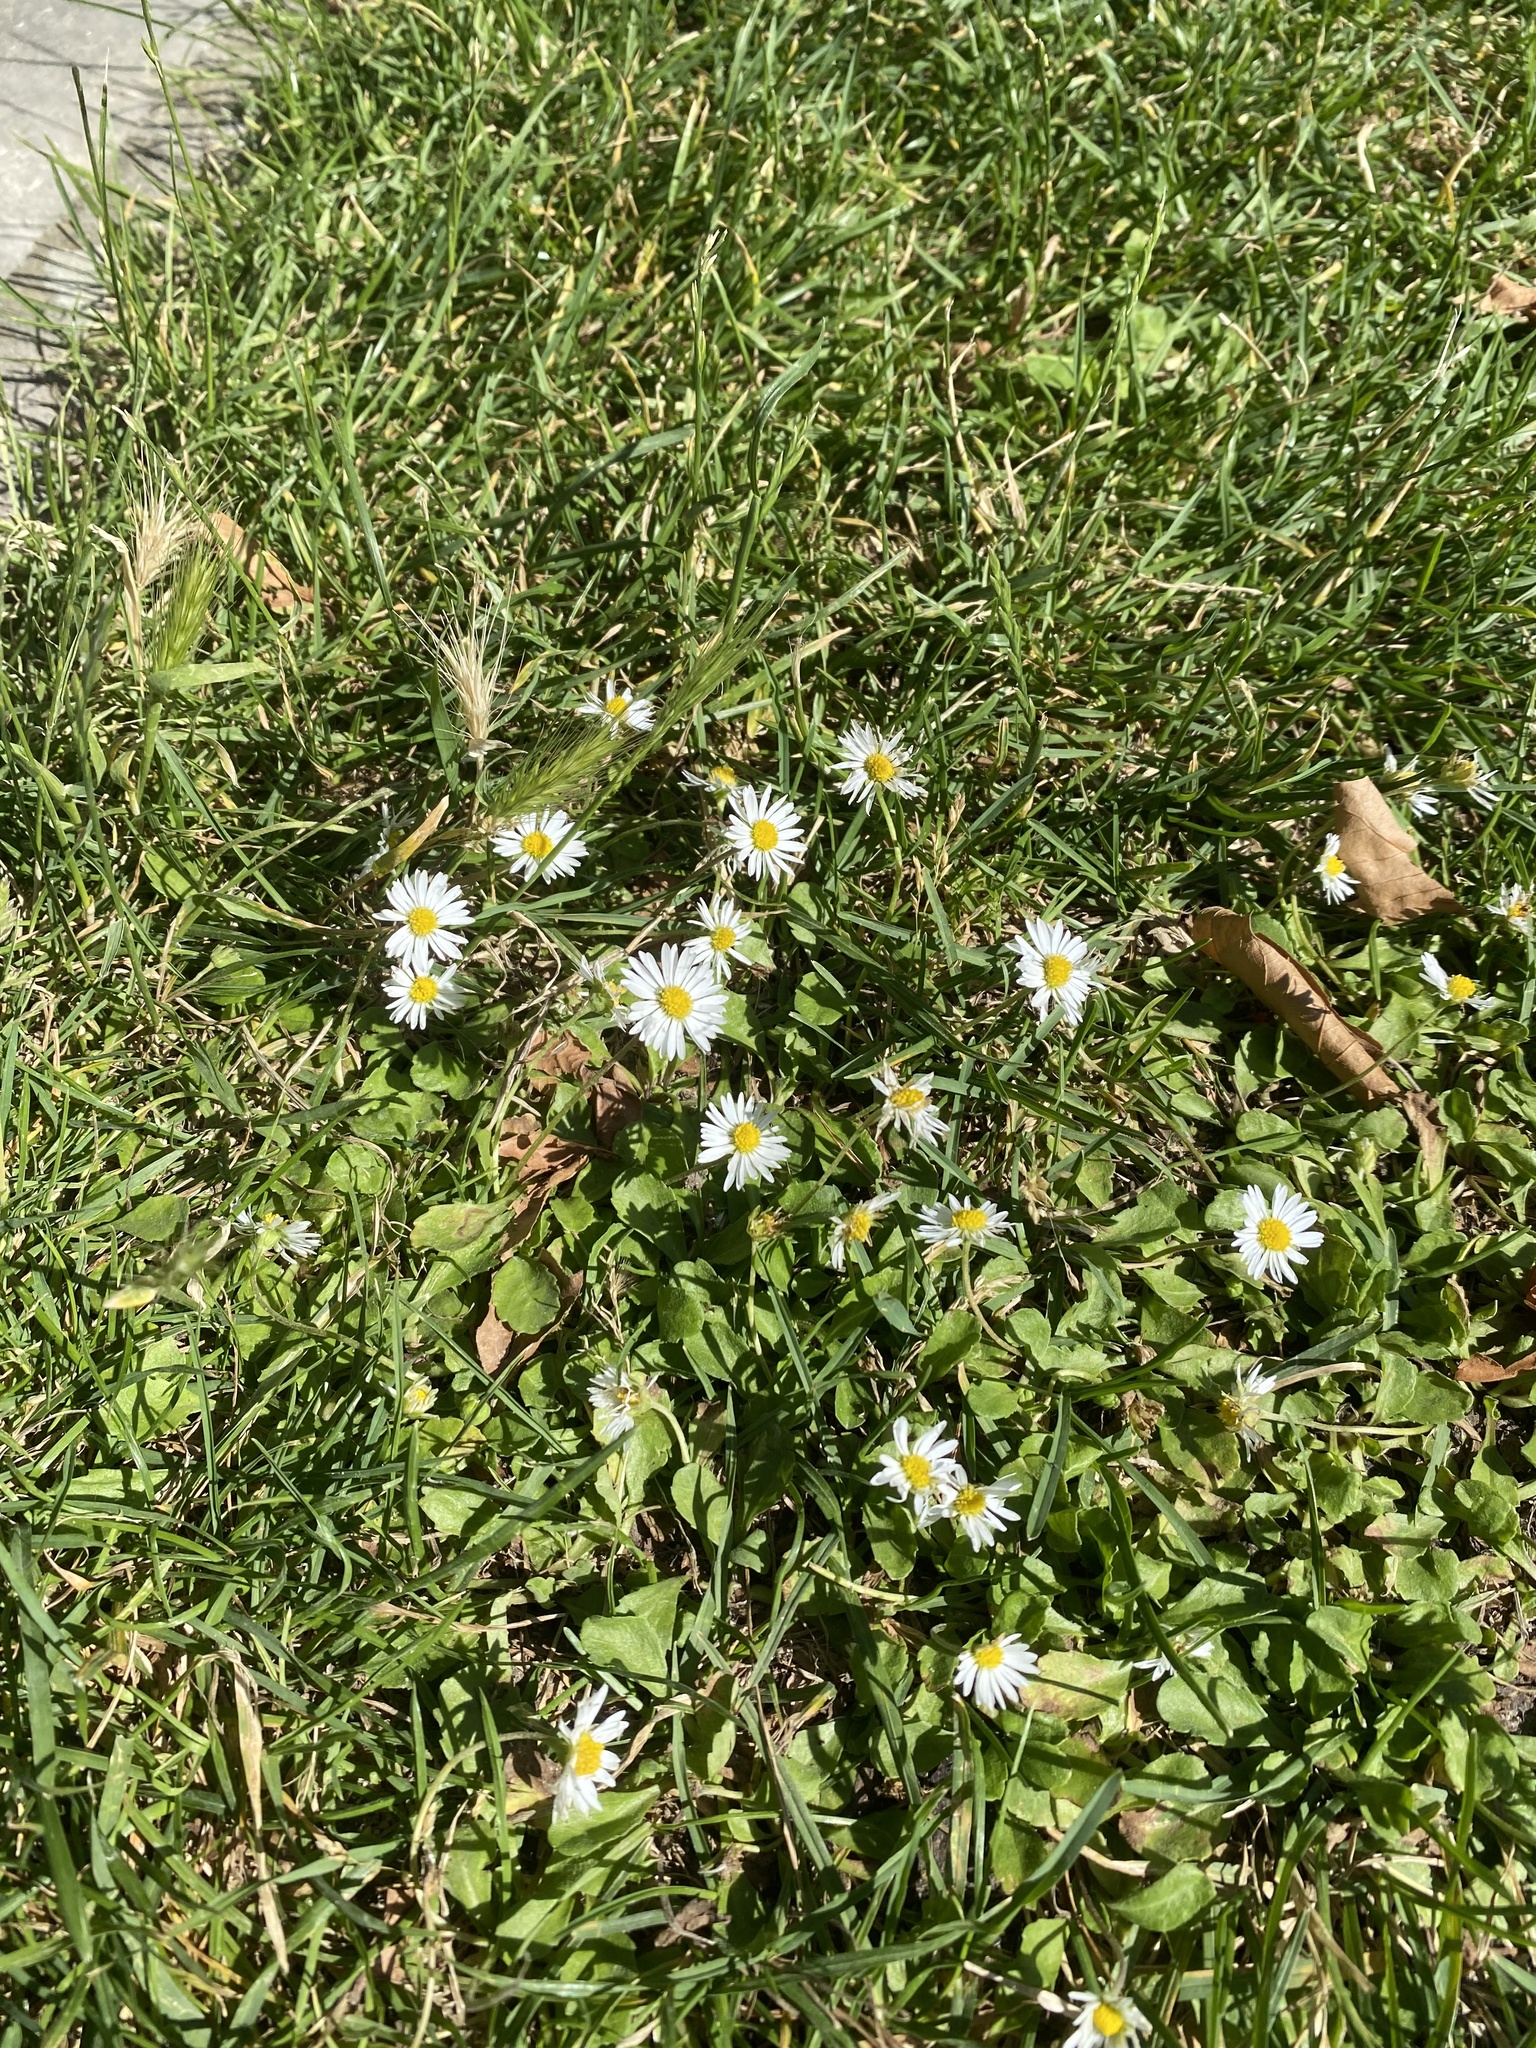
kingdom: Plantae
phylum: Tracheophyta
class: Magnoliopsida
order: Asterales
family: Asteraceae
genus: Bellis
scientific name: Bellis perennis
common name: Lawndaisy
